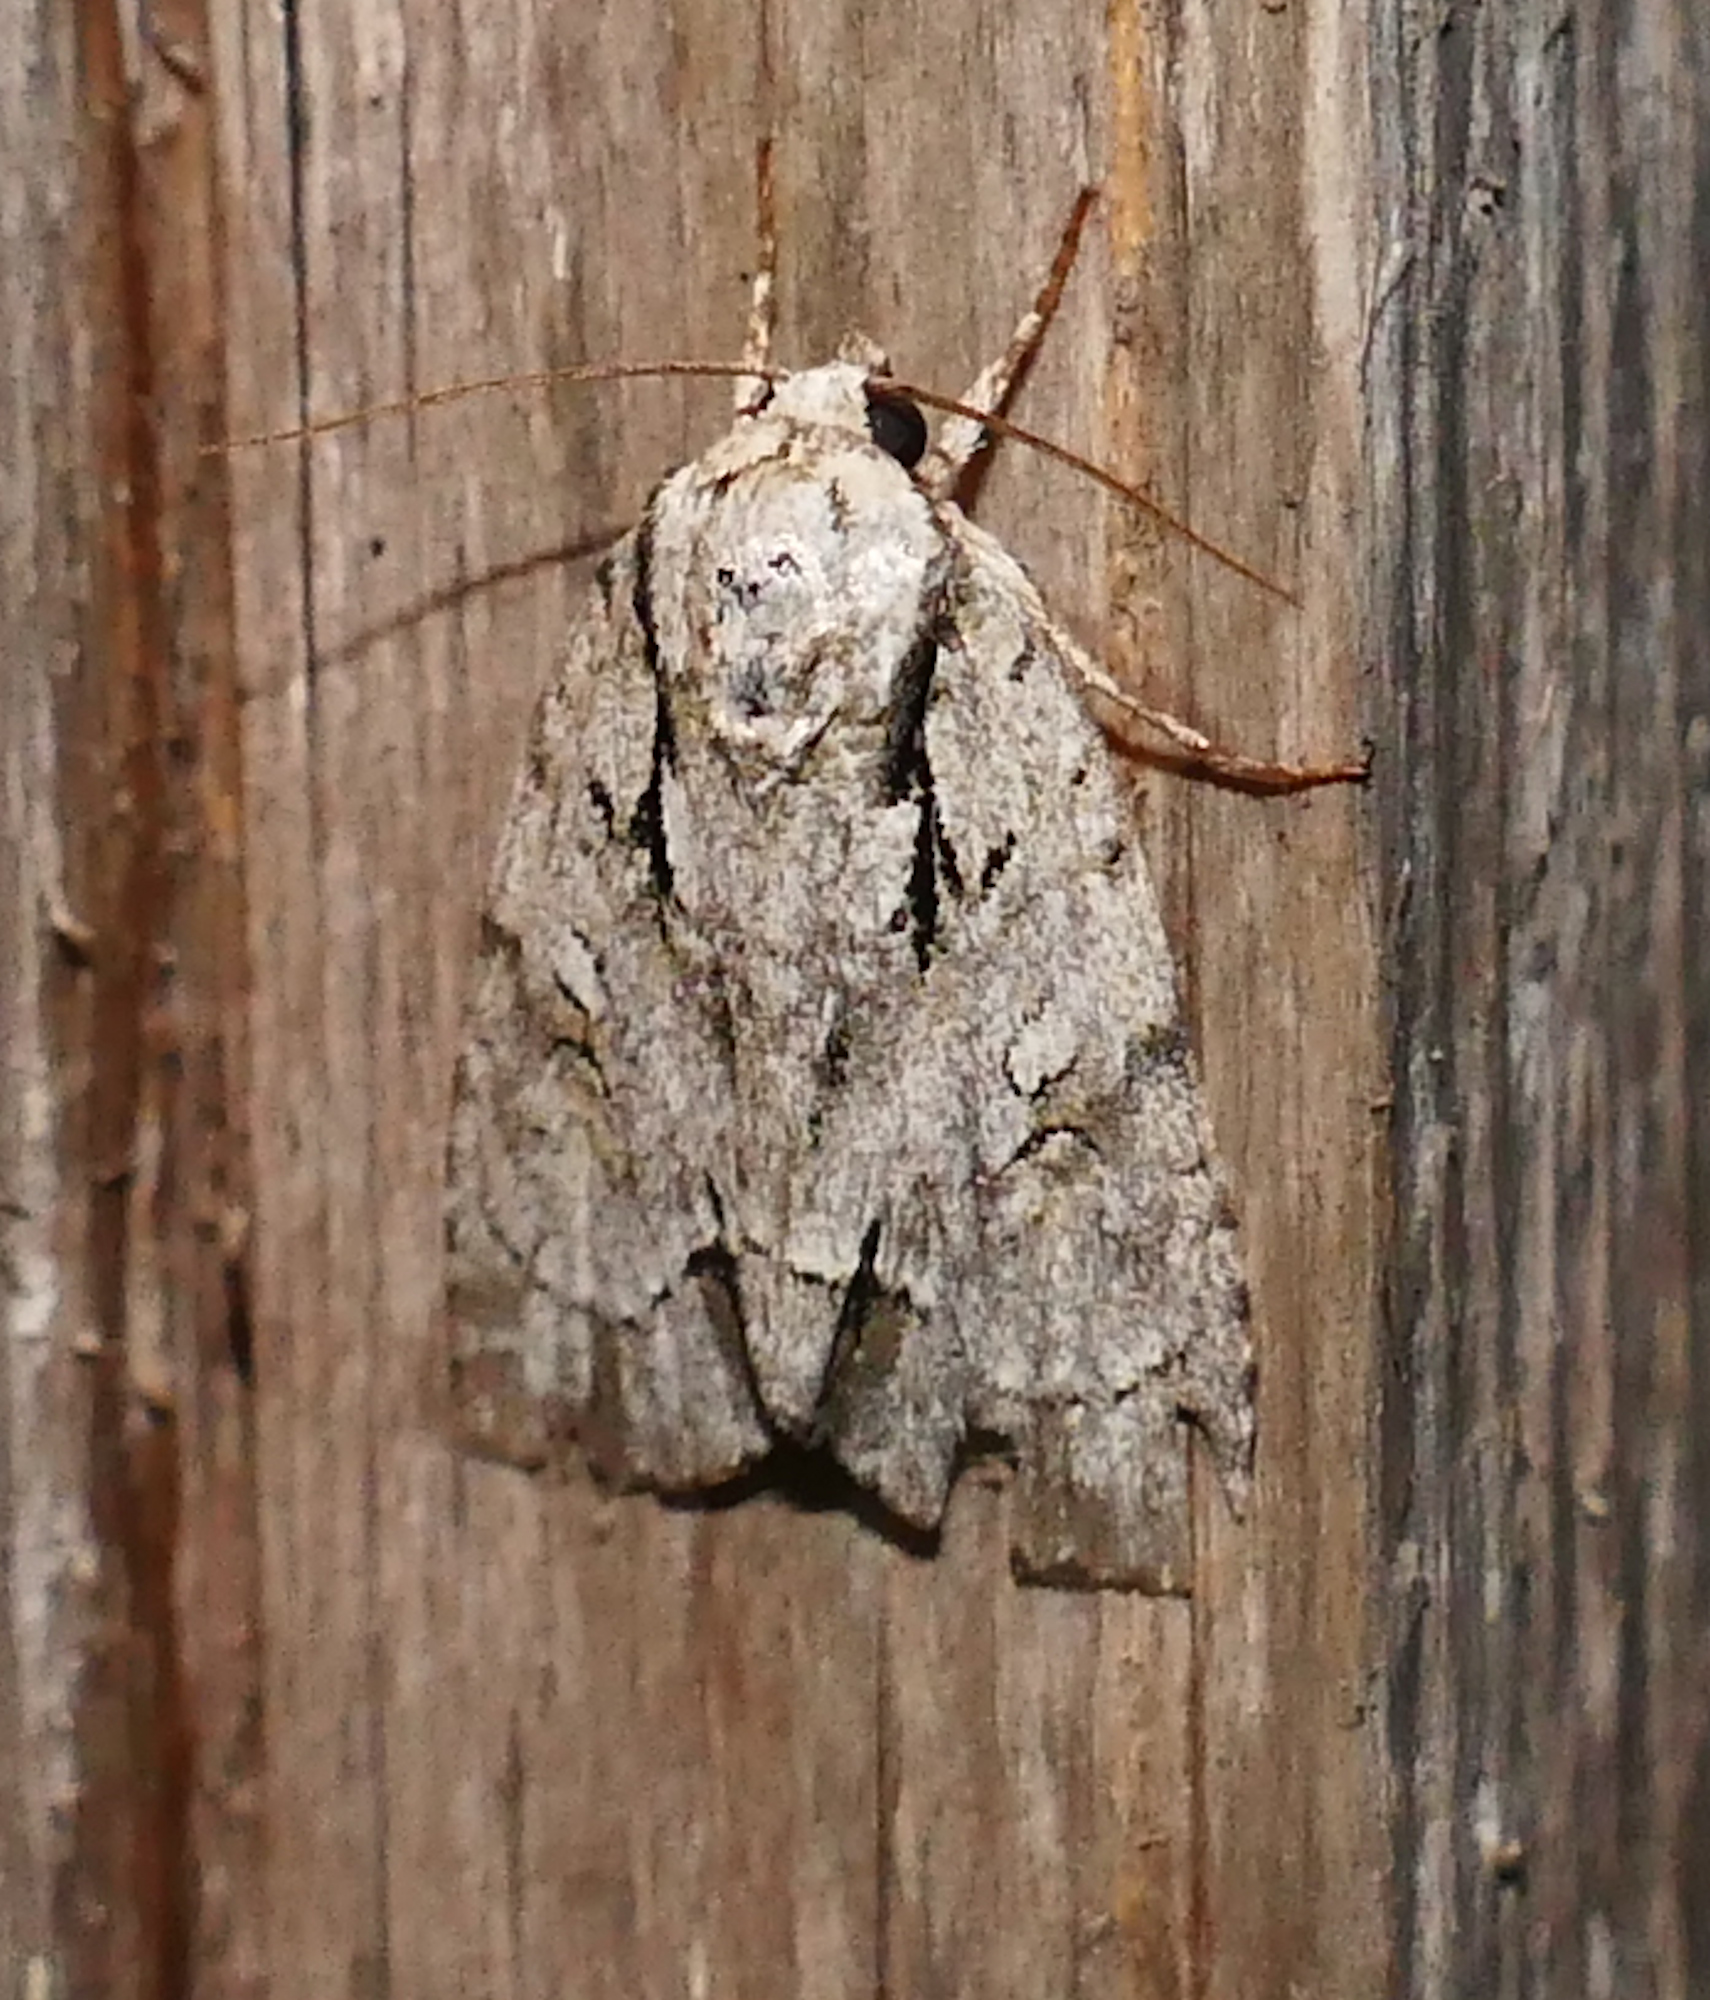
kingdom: Animalia
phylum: Arthropoda
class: Insecta
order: Lepidoptera
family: Noctuidae
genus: Acronicta
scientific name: Acronicta vinnula
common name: Delightful dagger
